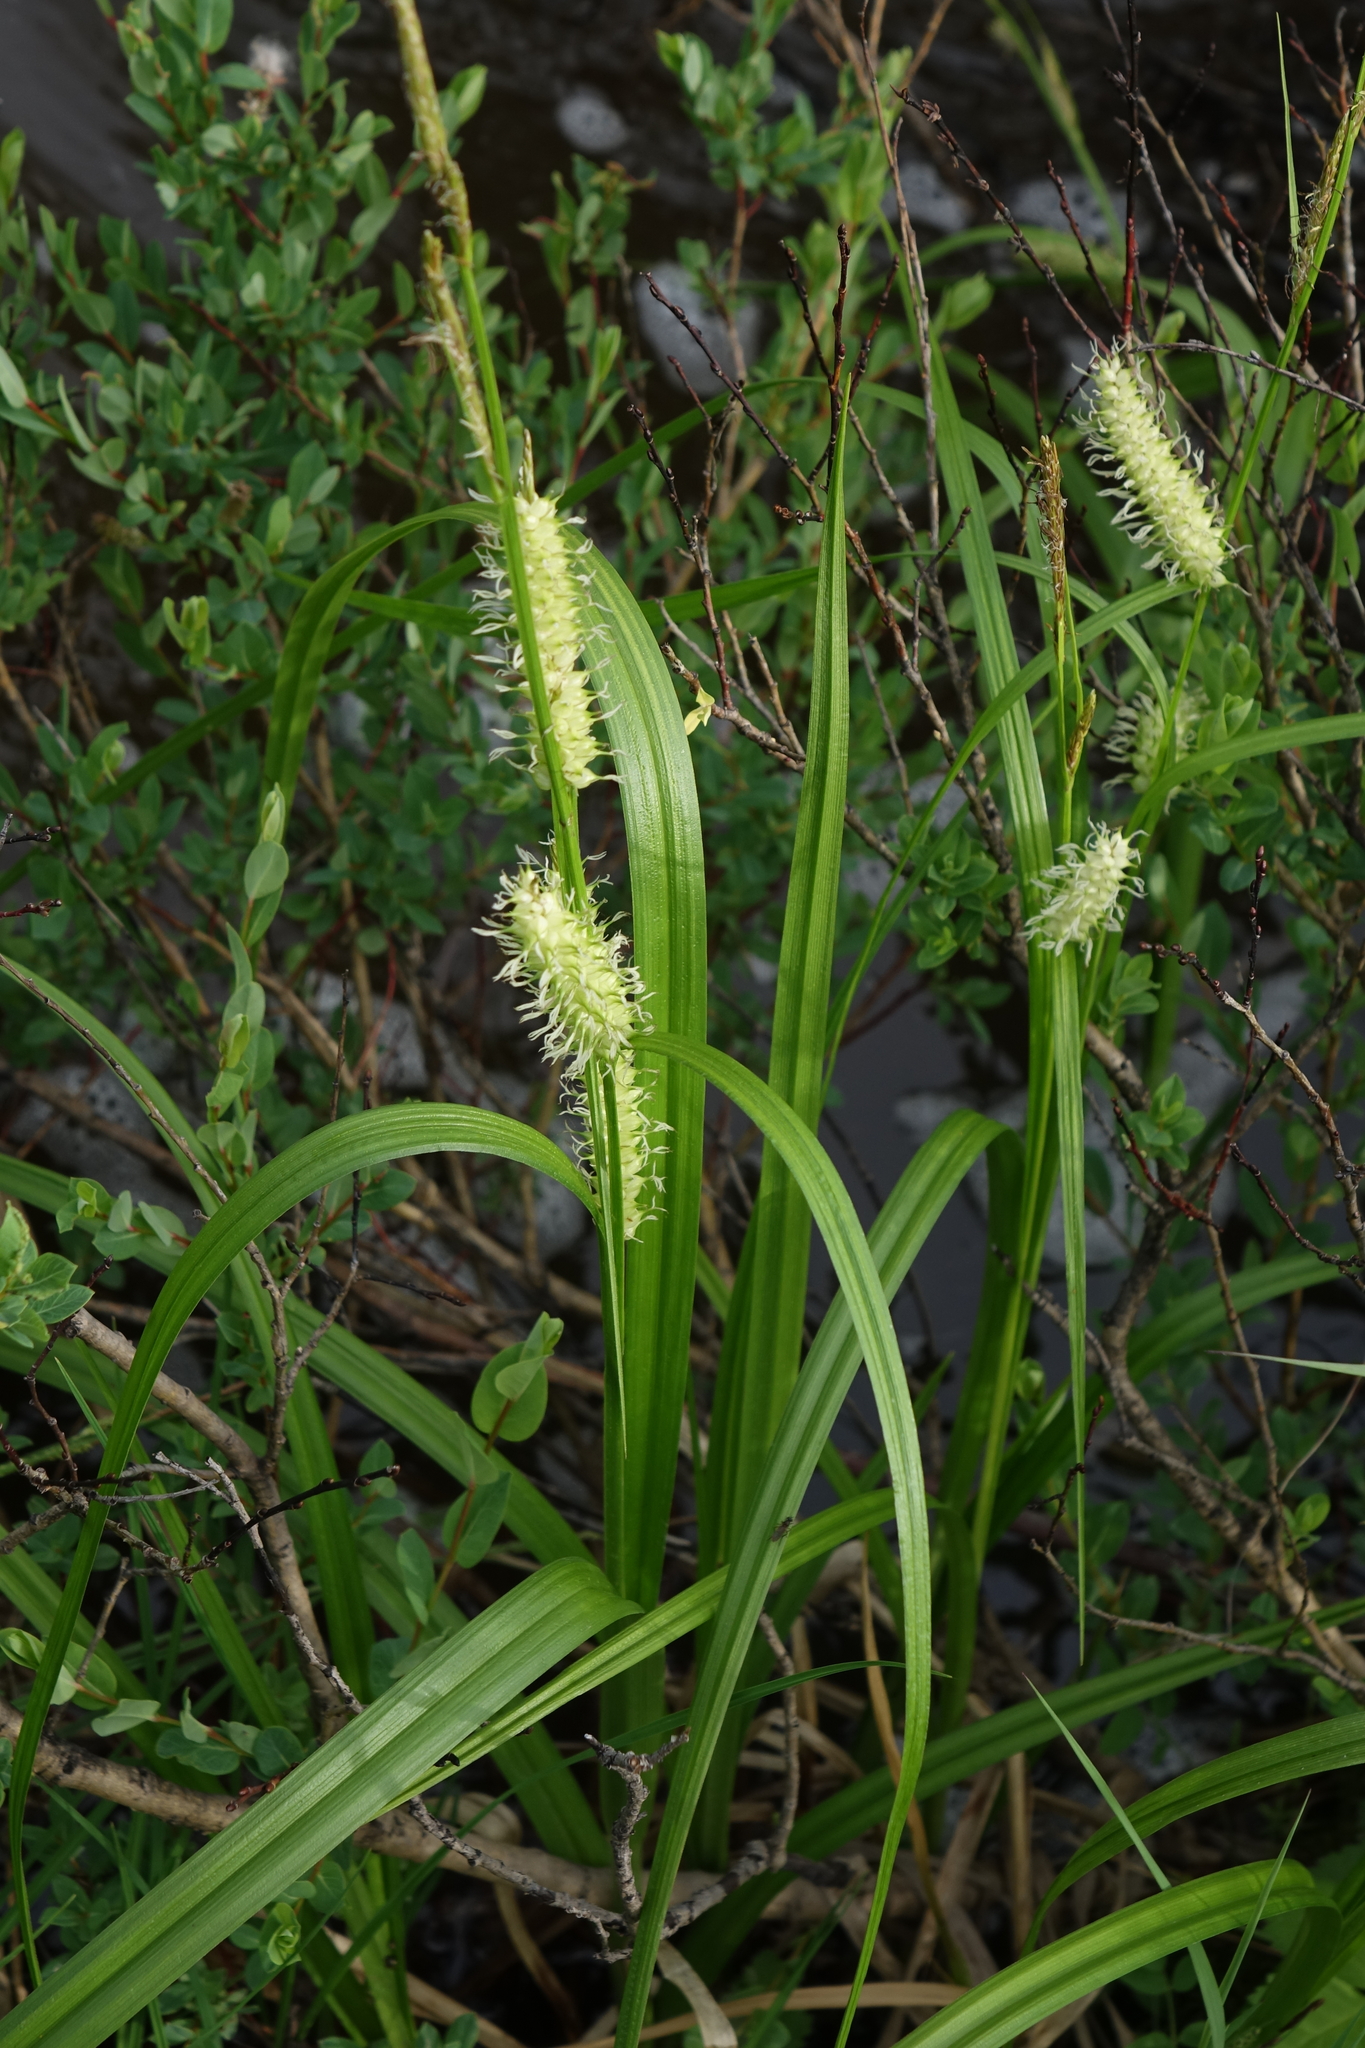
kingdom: Plantae
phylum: Tracheophyta
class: Liliopsida
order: Poales
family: Cyperaceae
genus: Carex
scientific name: Carex utriculata
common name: Beaked sedge
